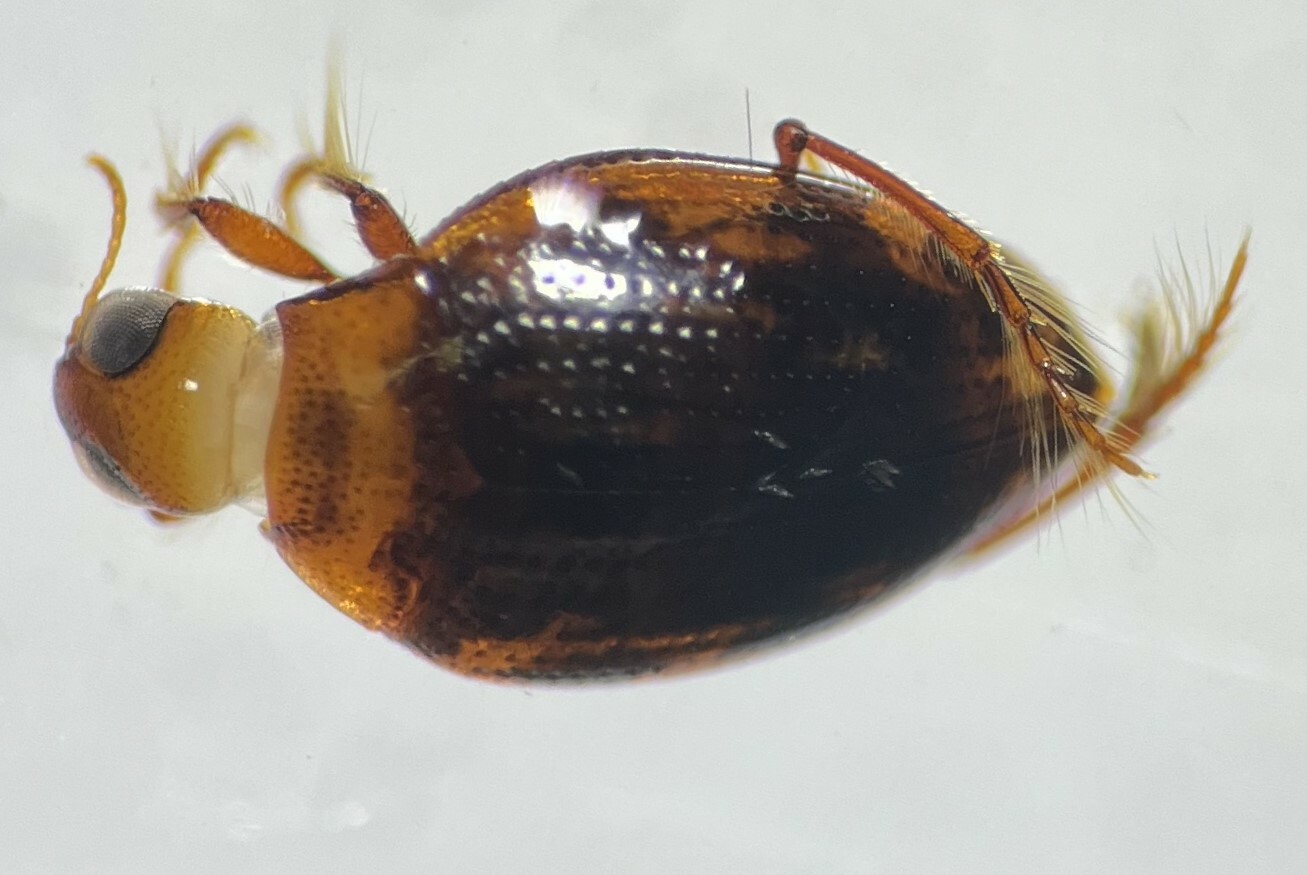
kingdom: Animalia
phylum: Arthropoda
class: Insecta
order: Coleoptera
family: Haliplidae
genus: Haliplus
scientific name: Haliplus confluentus
